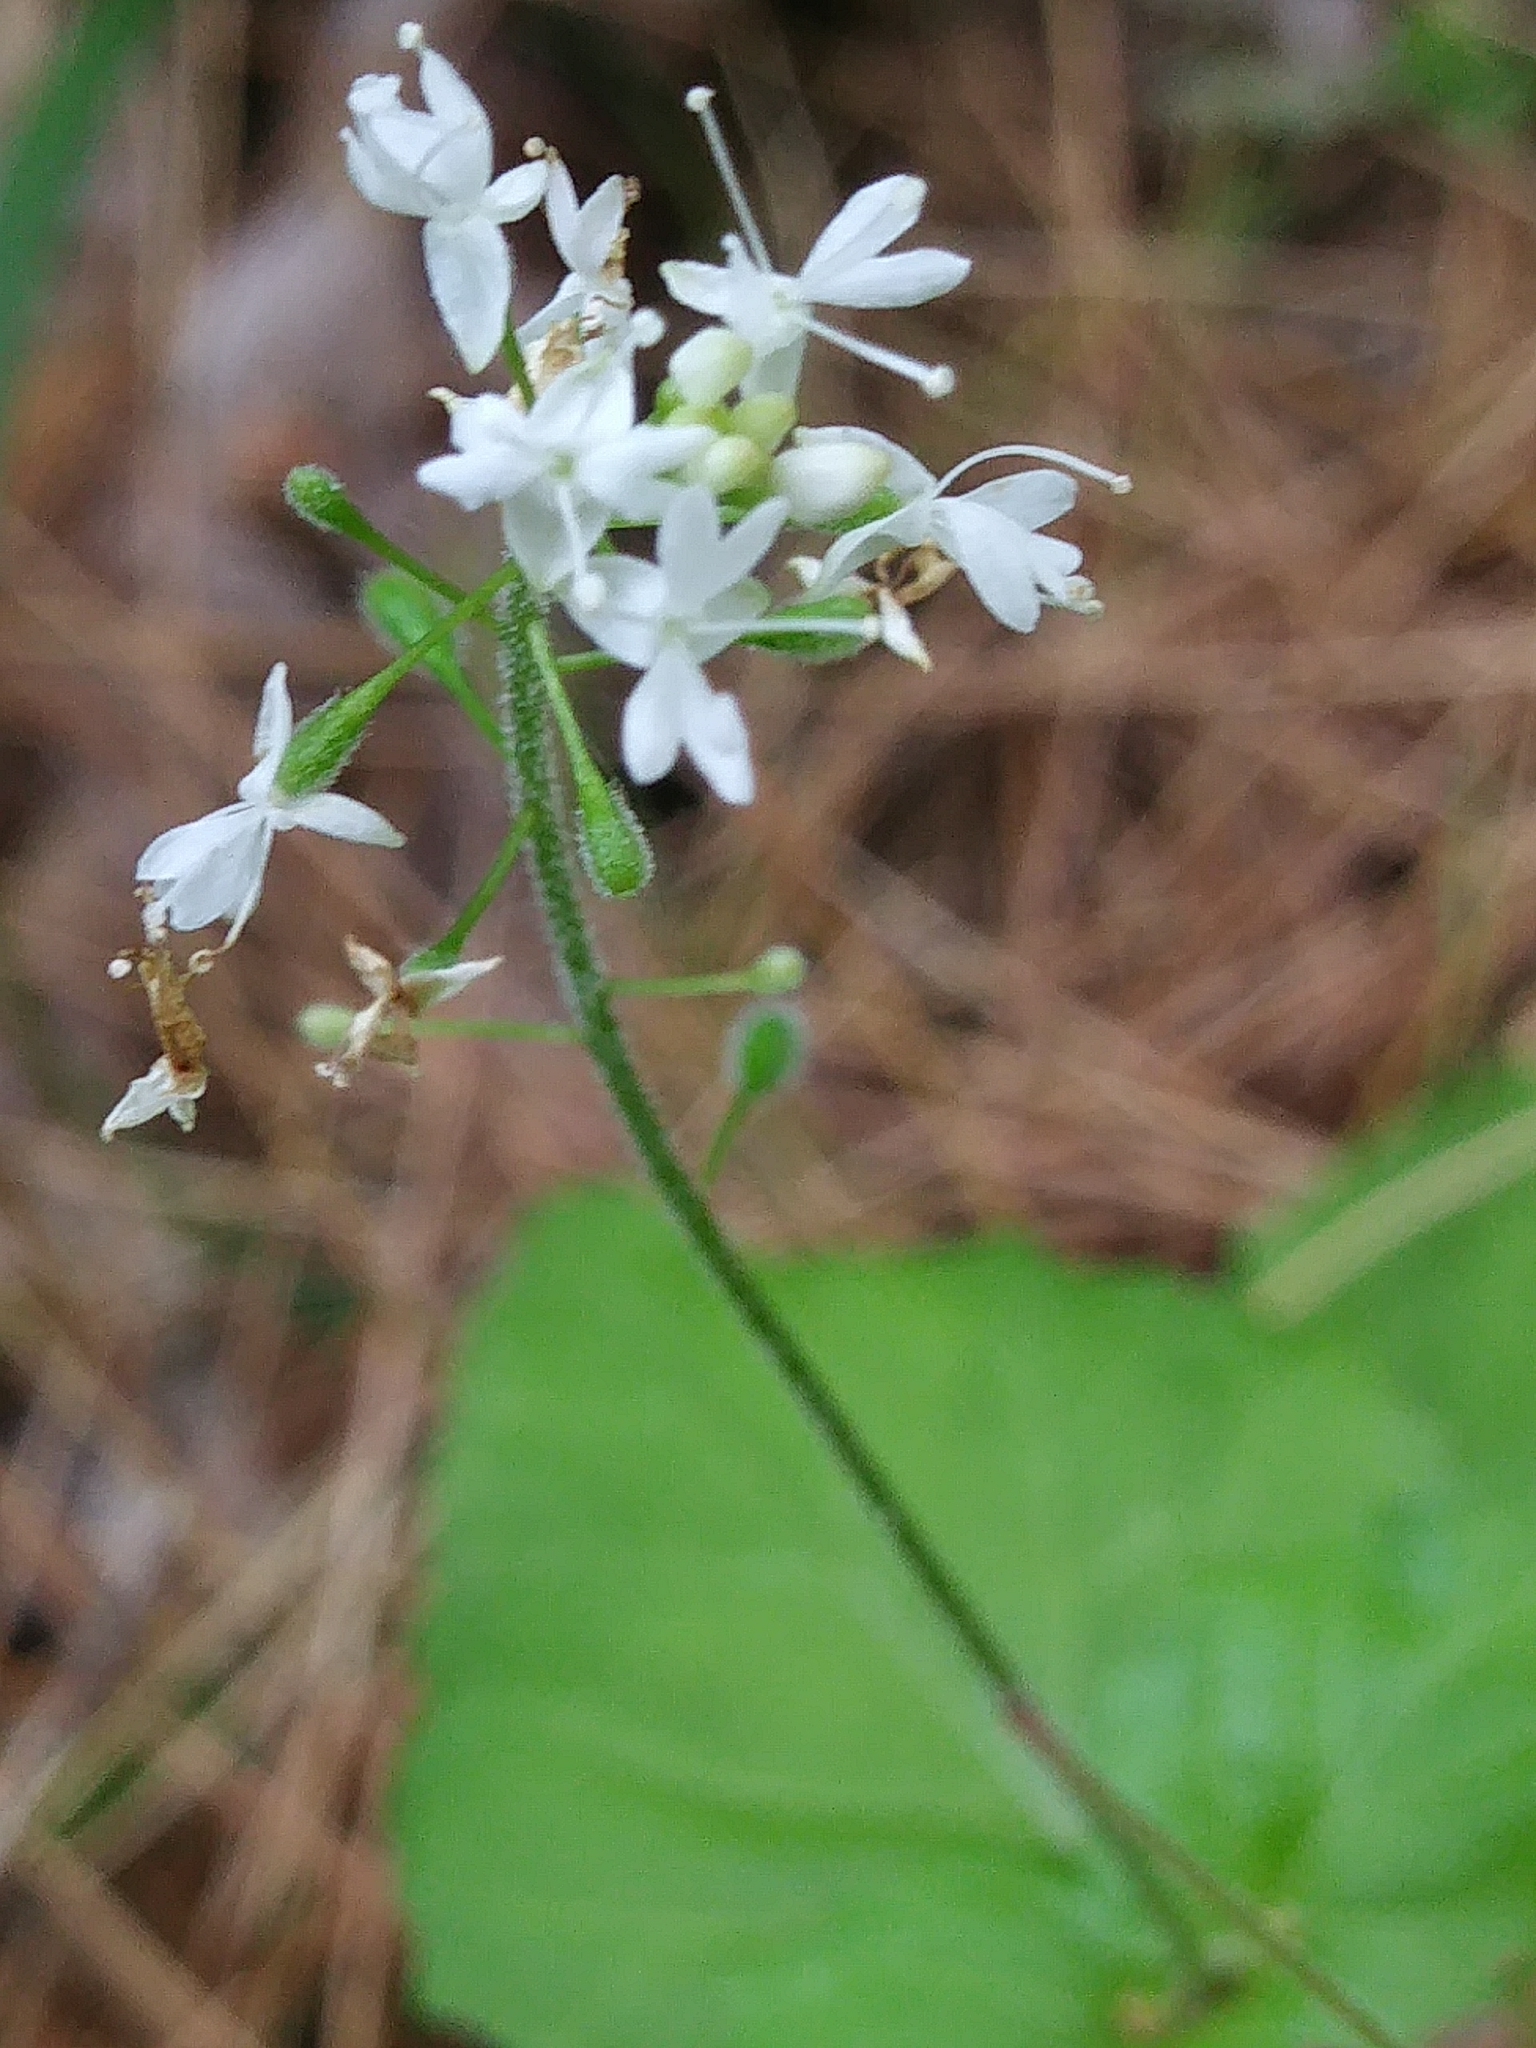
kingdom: Plantae
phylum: Tracheophyta
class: Magnoliopsida
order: Myrtales
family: Onagraceae
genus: Circaea
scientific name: Circaea canadensis
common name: Broad-leaved enchanter's nightshade
